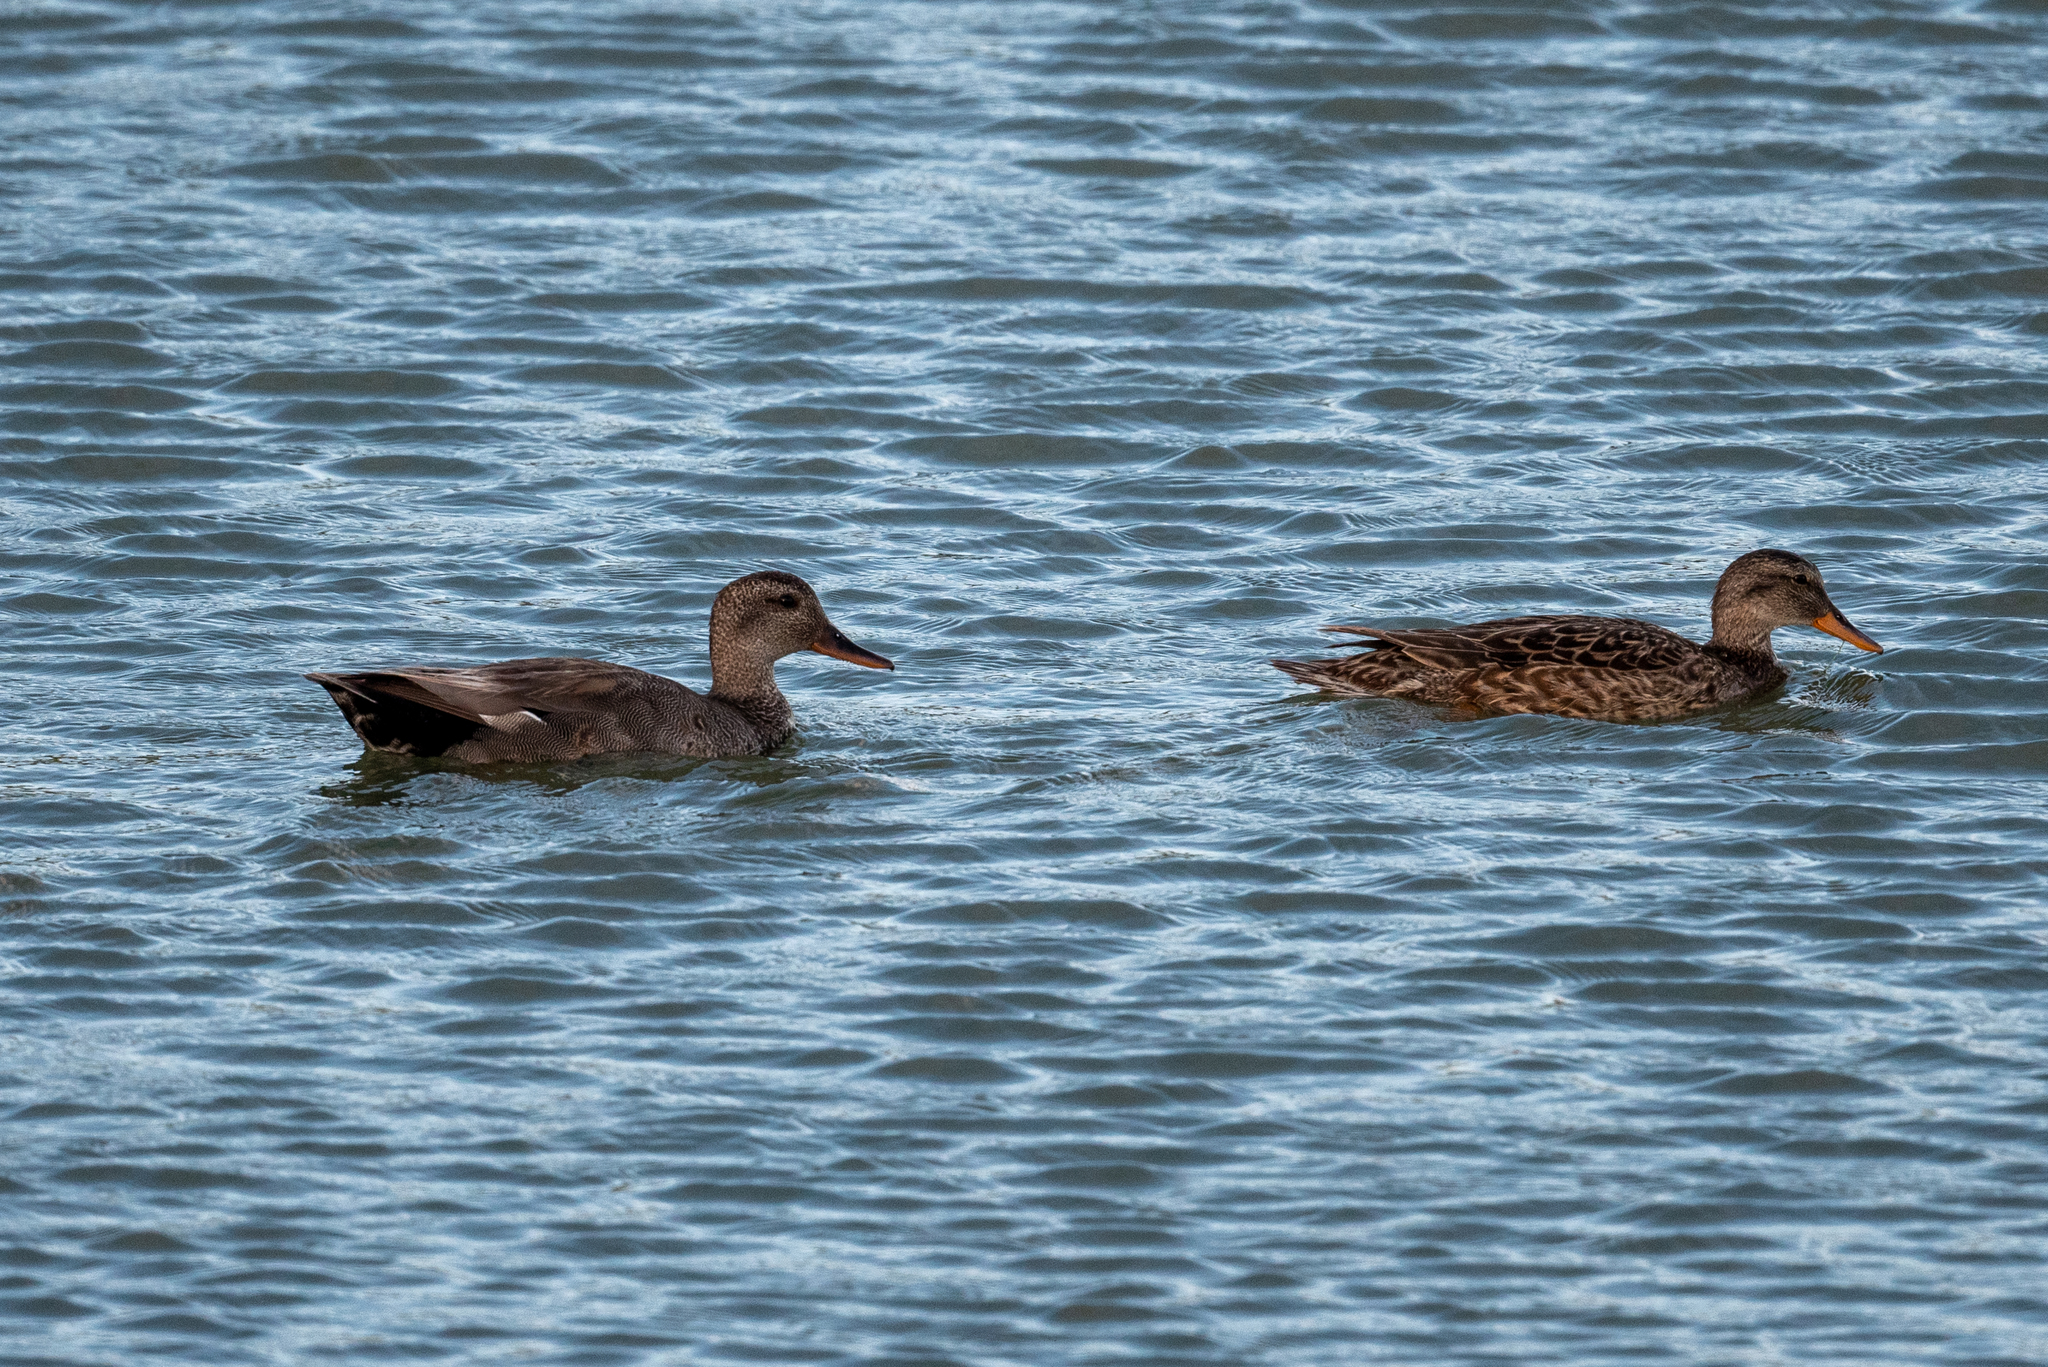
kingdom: Animalia
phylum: Chordata
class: Aves
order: Anseriformes
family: Anatidae
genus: Mareca
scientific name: Mareca strepera
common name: Gadwall
